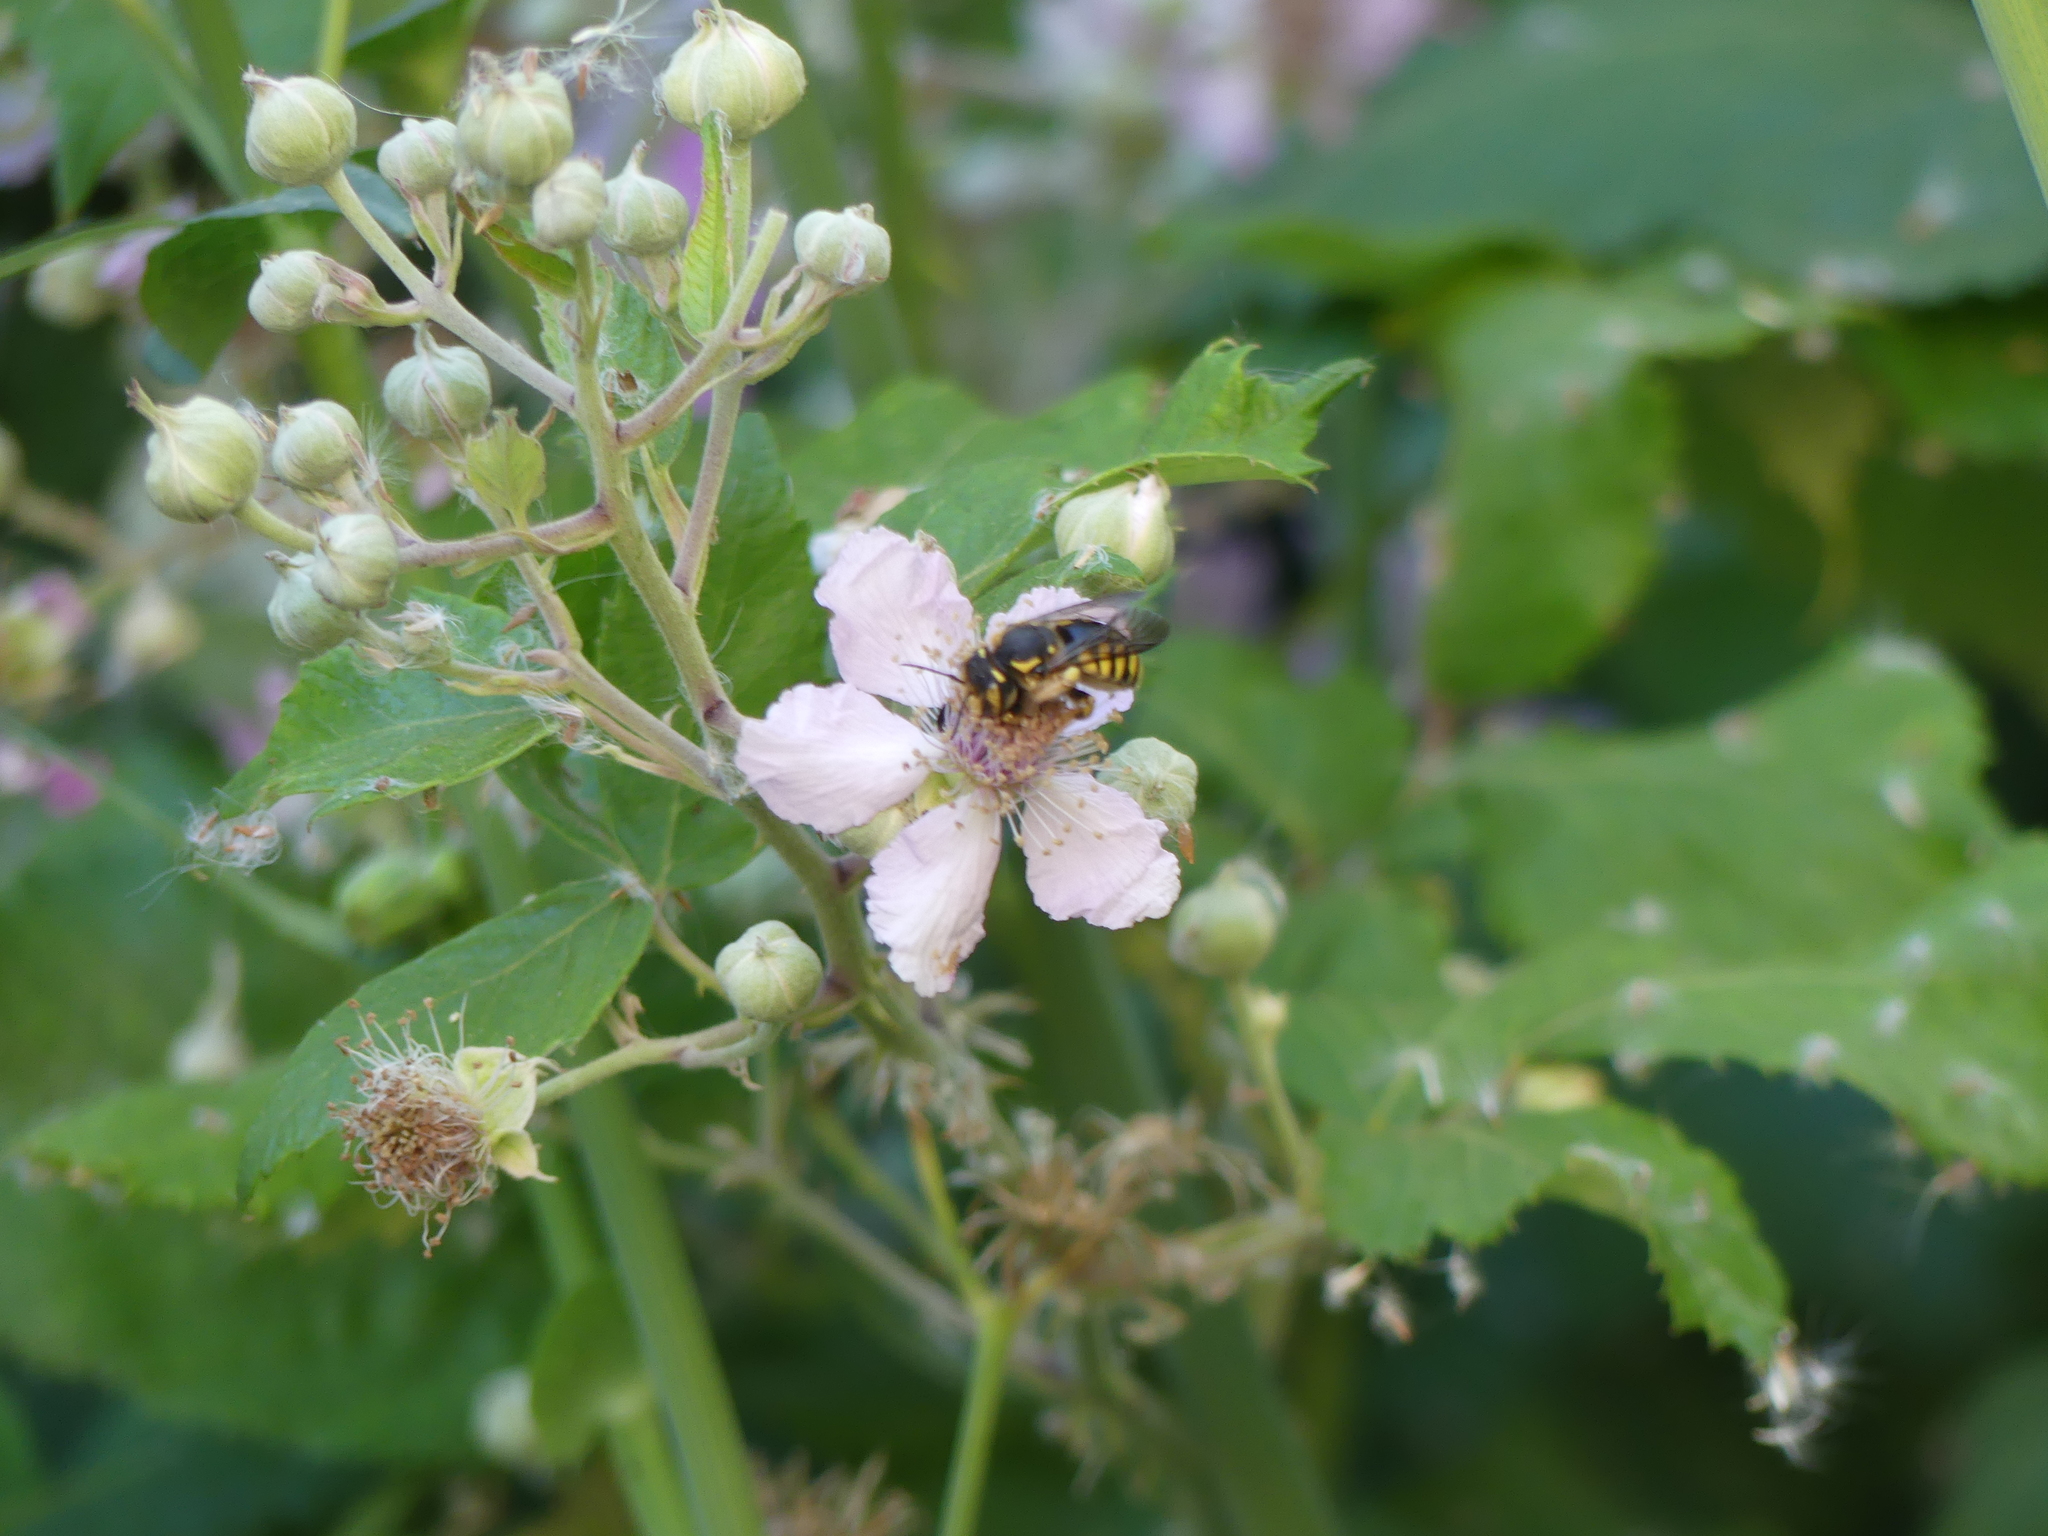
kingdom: Animalia
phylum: Arthropoda
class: Insecta
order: Hymenoptera
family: Megachilidae
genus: Anthidium
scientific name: Anthidium florentinum
